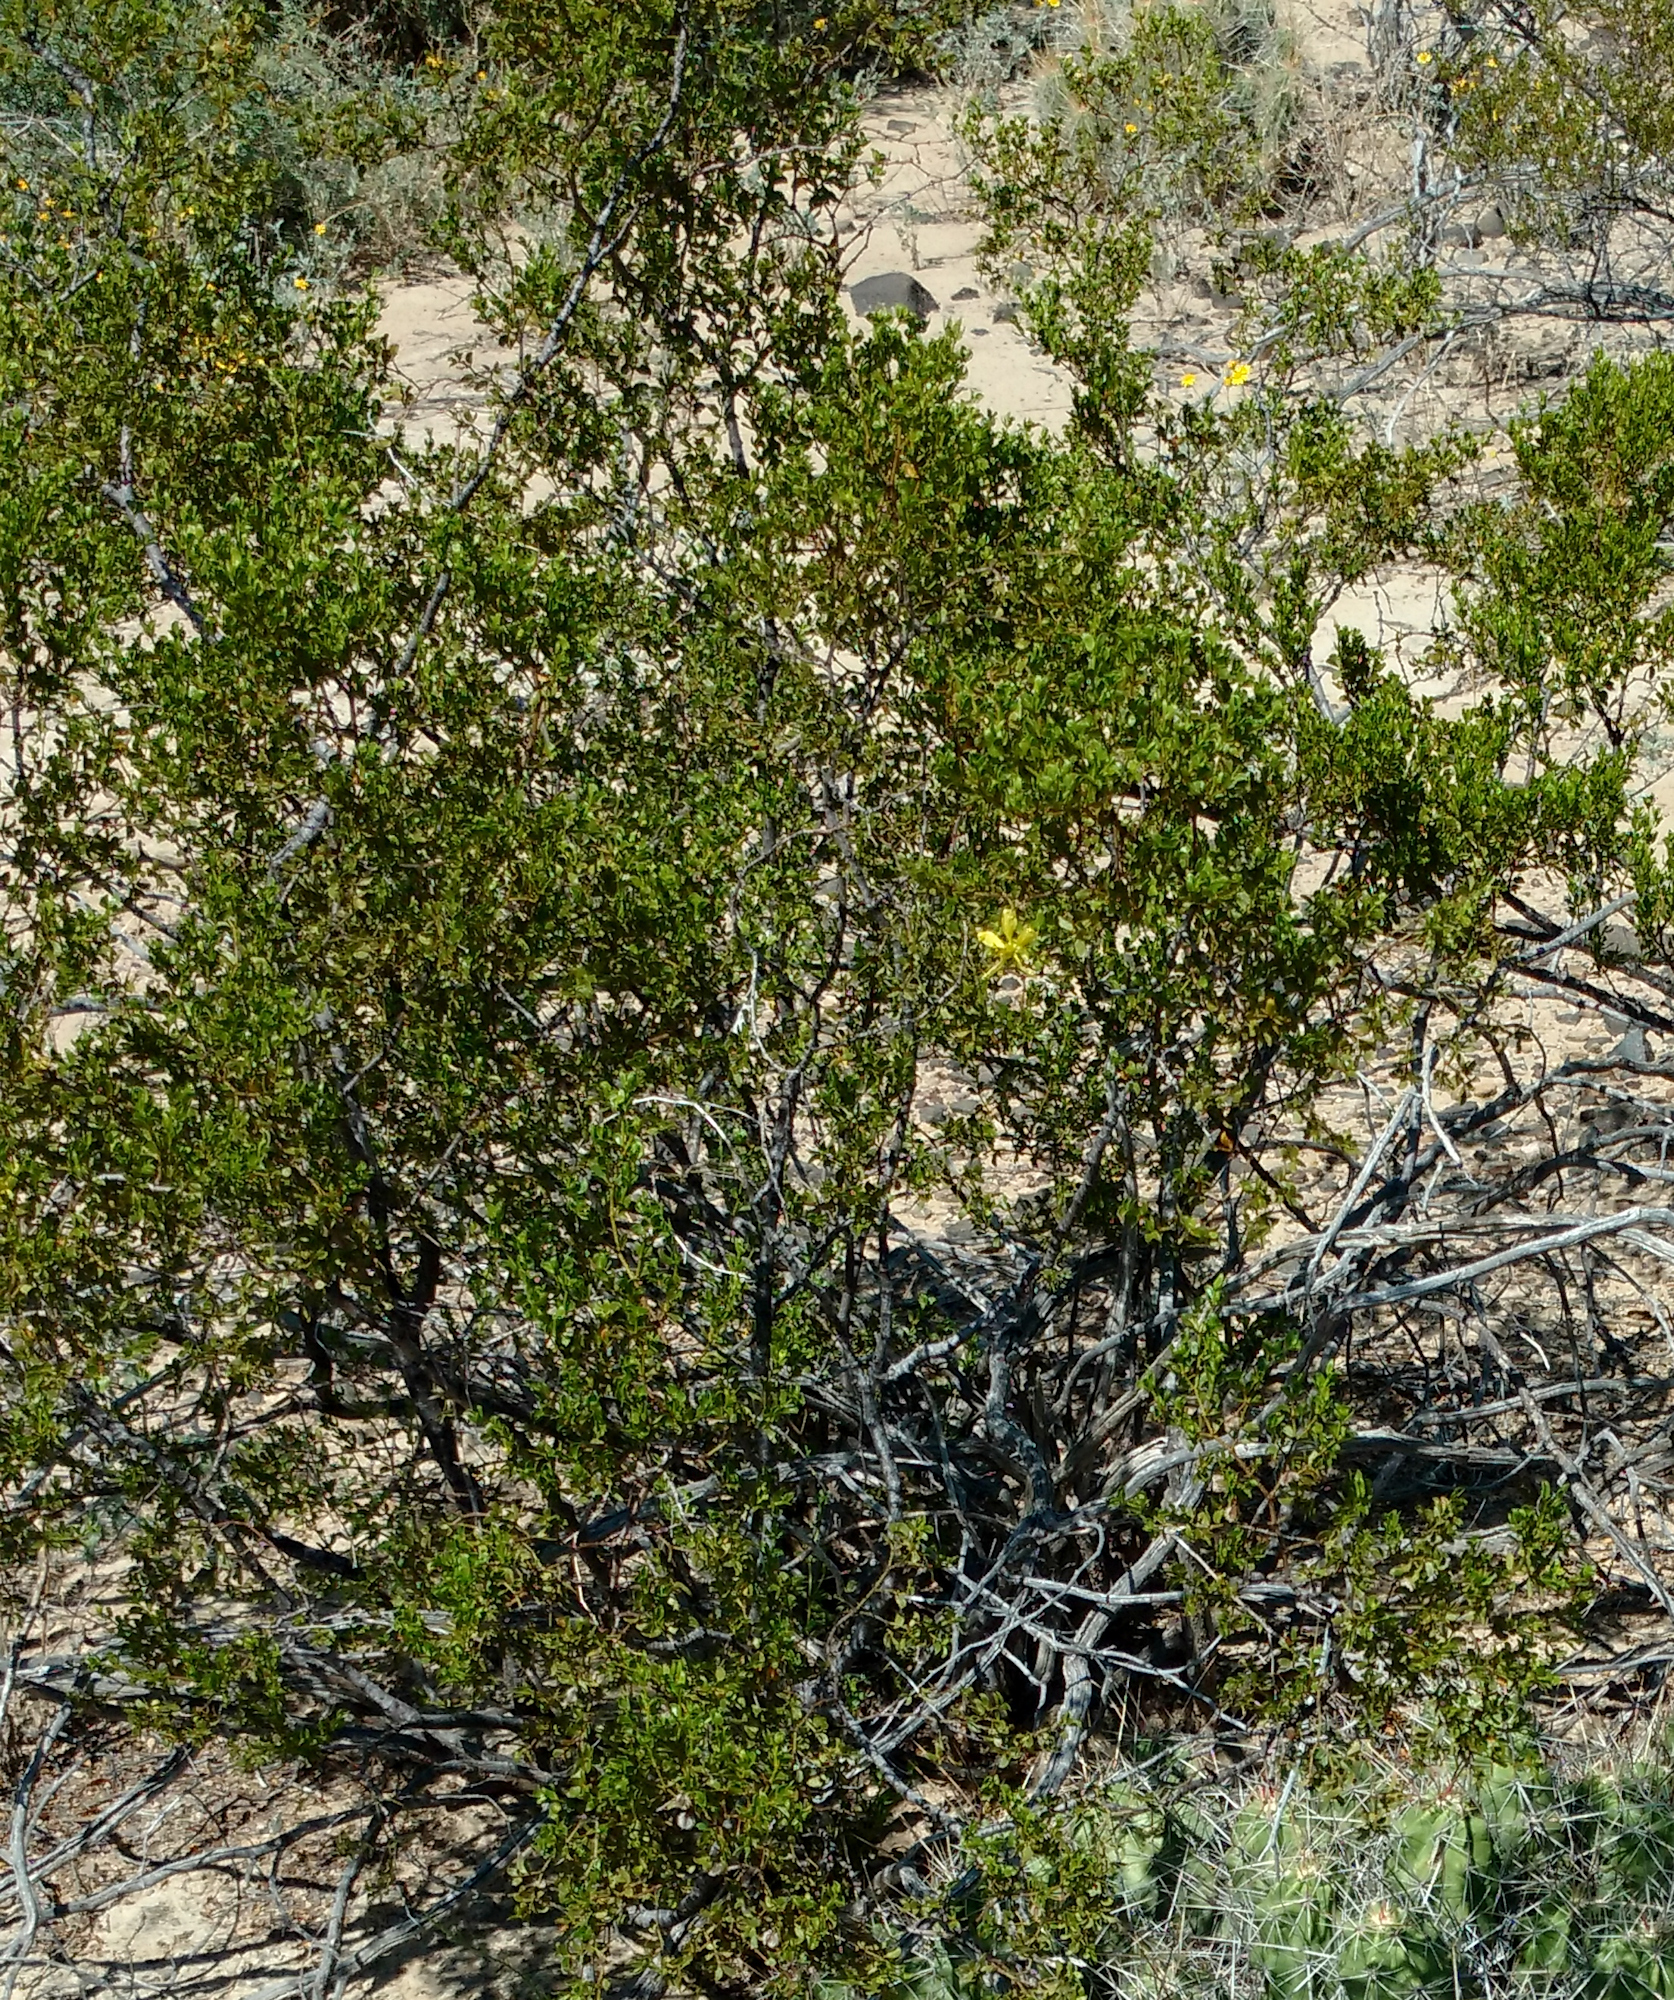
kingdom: Plantae
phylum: Tracheophyta
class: Magnoliopsida
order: Zygophyllales
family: Zygophyllaceae
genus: Larrea
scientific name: Larrea tridentata
